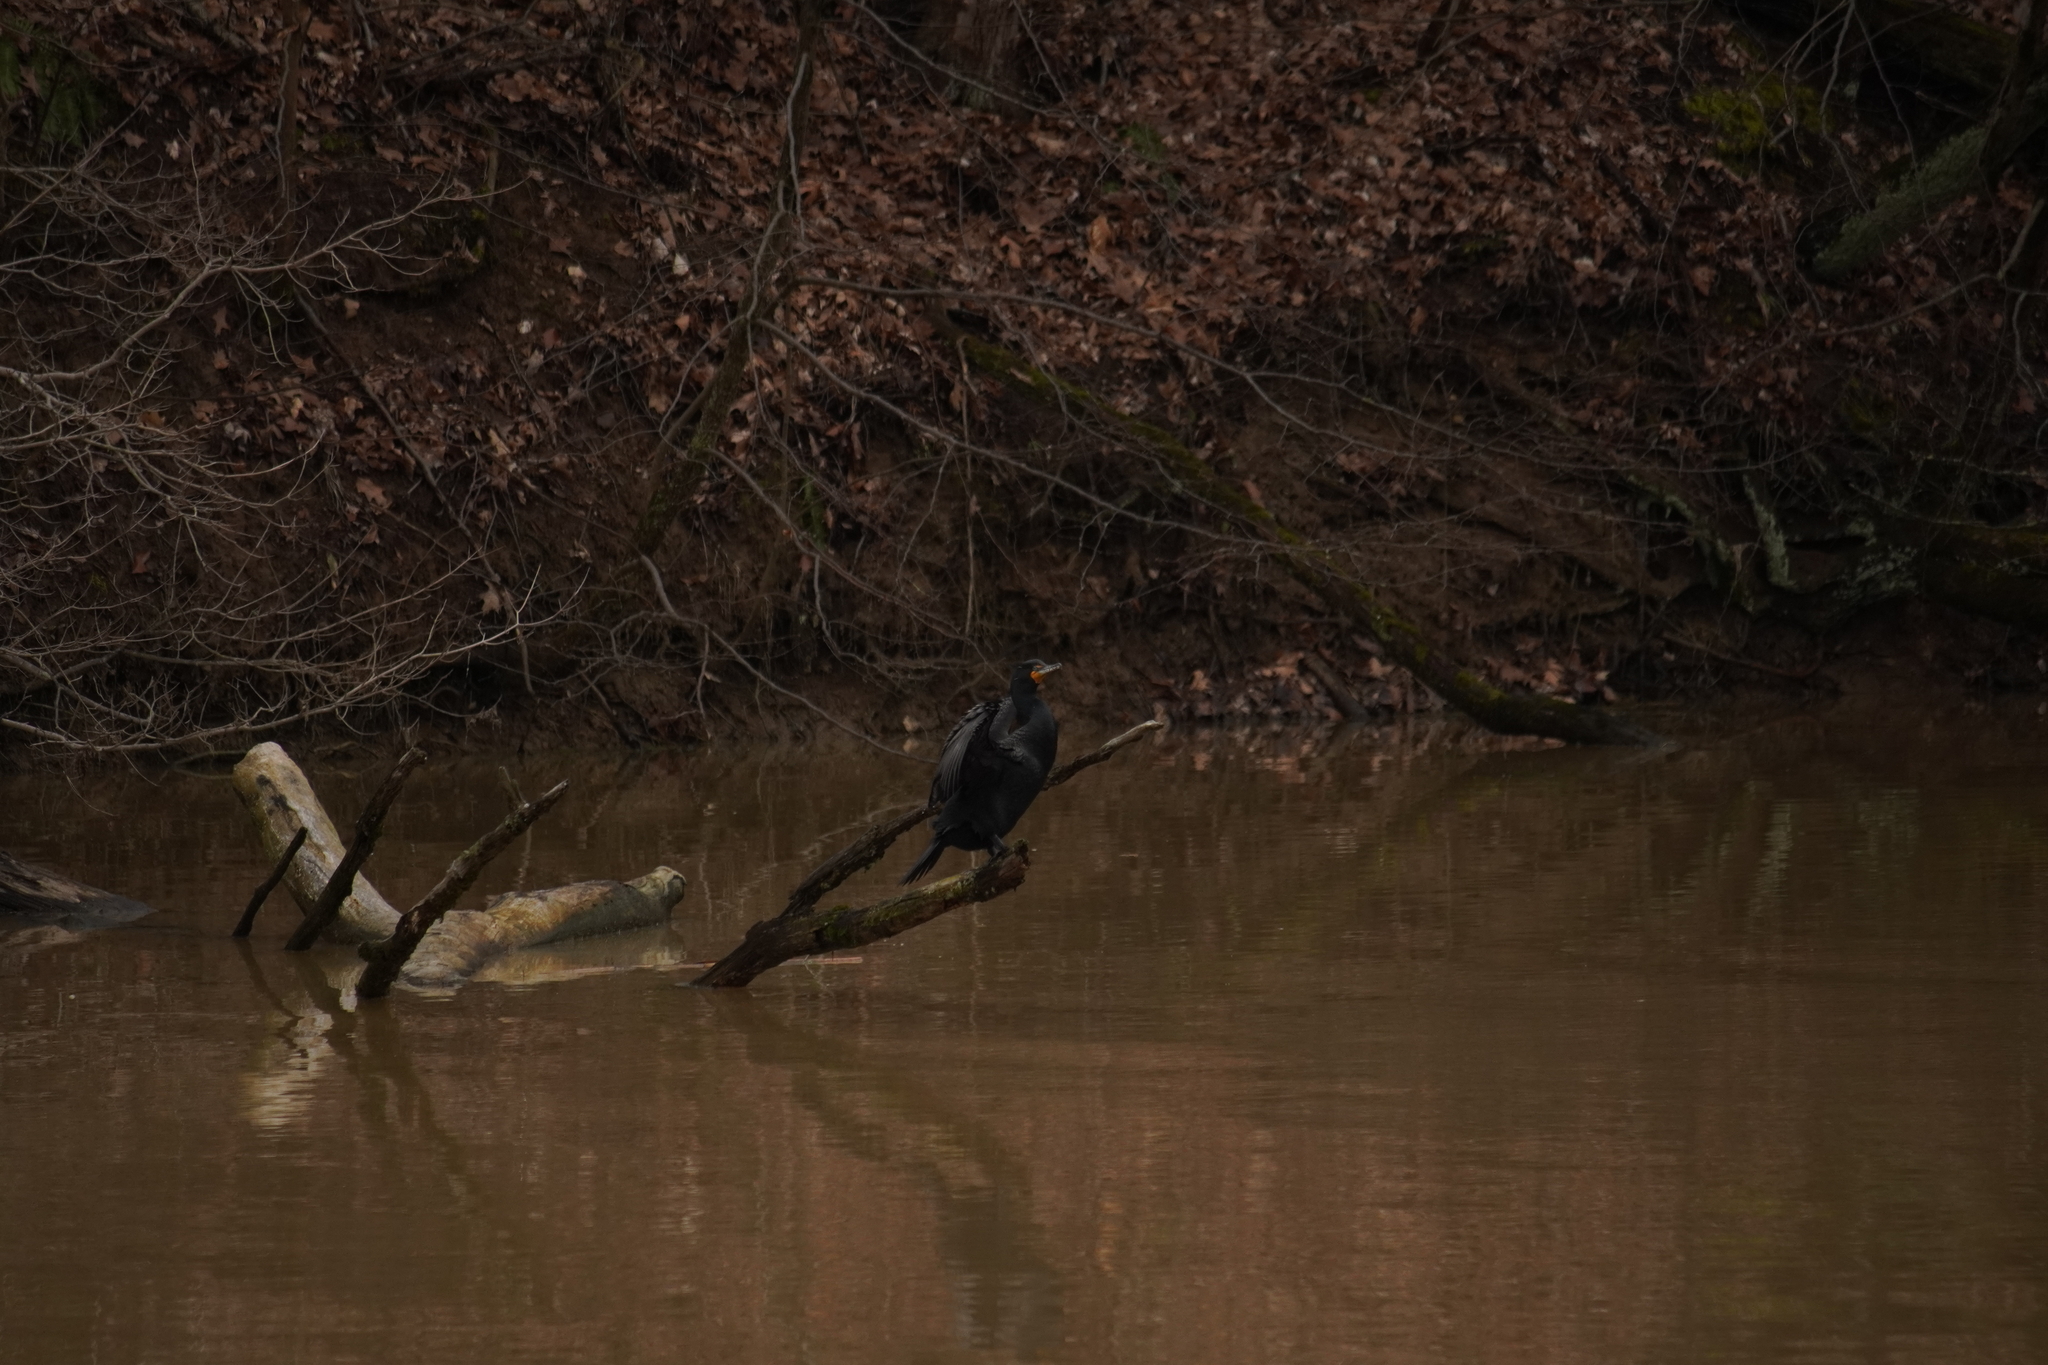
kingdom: Animalia
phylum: Chordata
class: Aves
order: Suliformes
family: Phalacrocoracidae
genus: Phalacrocorax
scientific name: Phalacrocorax auritus
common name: Double-crested cormorant
